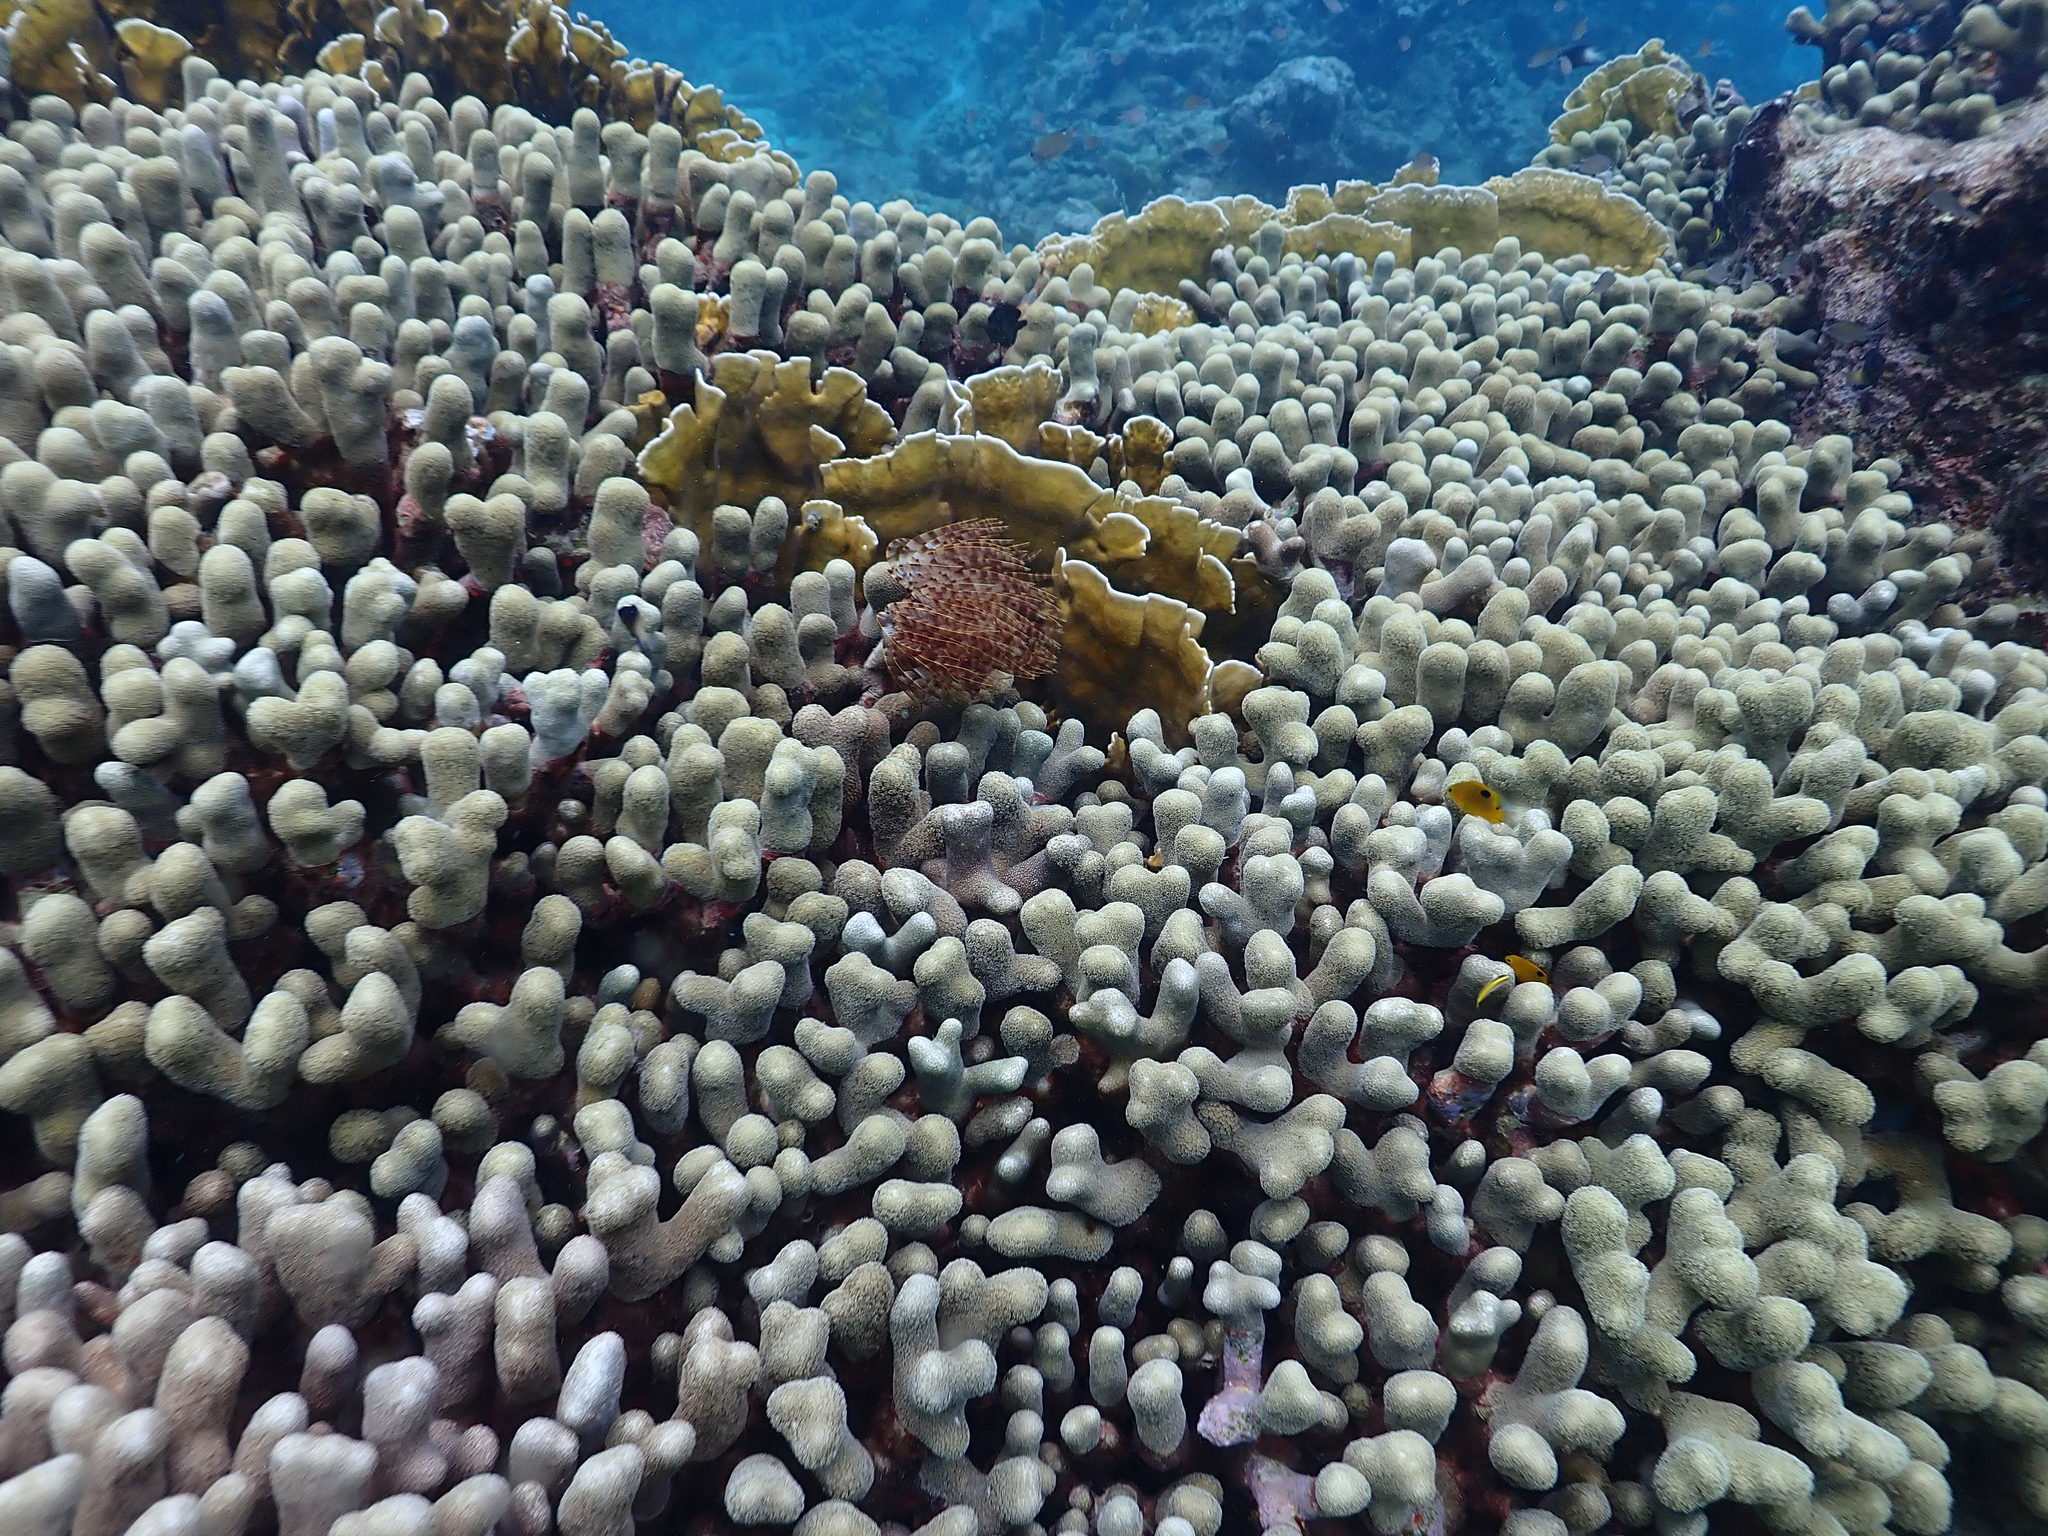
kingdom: Animalia
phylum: Cnidaria
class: Anthozoa
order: Scleractinia
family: Poritidae
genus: Porites
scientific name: Porites porites
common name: Finger coral
